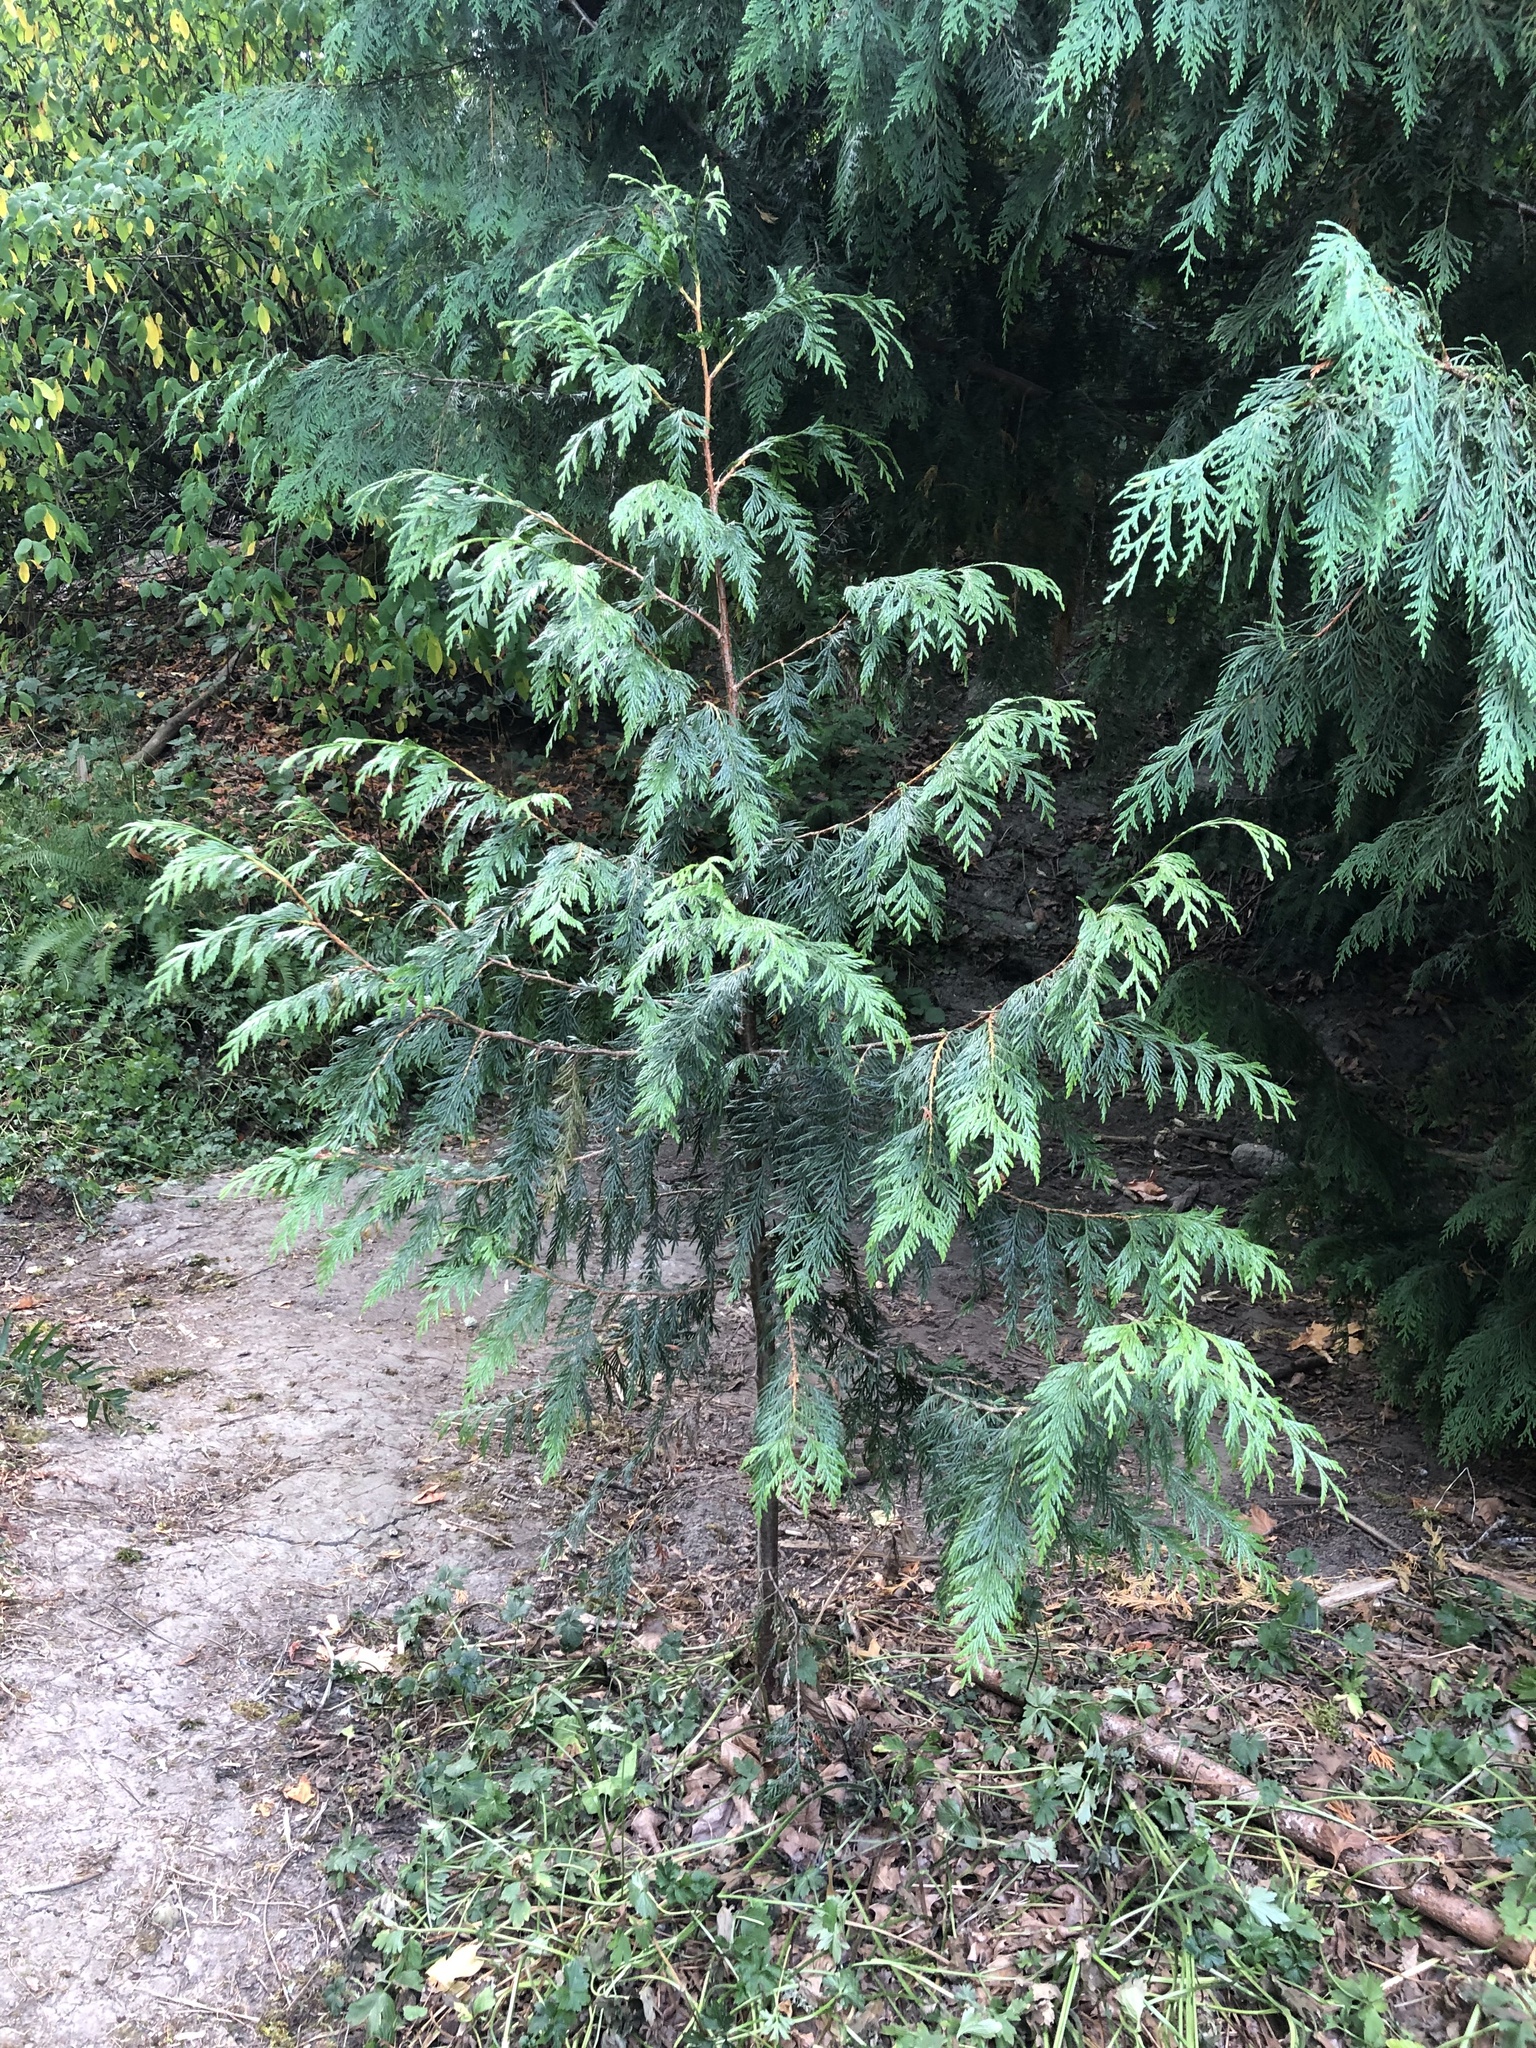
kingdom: Plantae
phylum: Tracheophyta
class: Pinopsida
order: Pinales
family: Cupressaceae
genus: Thuja
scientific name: Thuja plicata
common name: Western red-cedar
